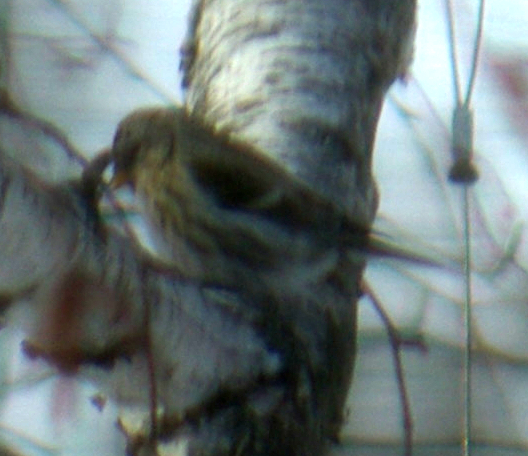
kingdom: Animalia
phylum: Chordata
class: Aves
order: Passeriformes
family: Fringillidae
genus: Acanthis
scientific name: Acanthis flammea
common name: Common redpoll
